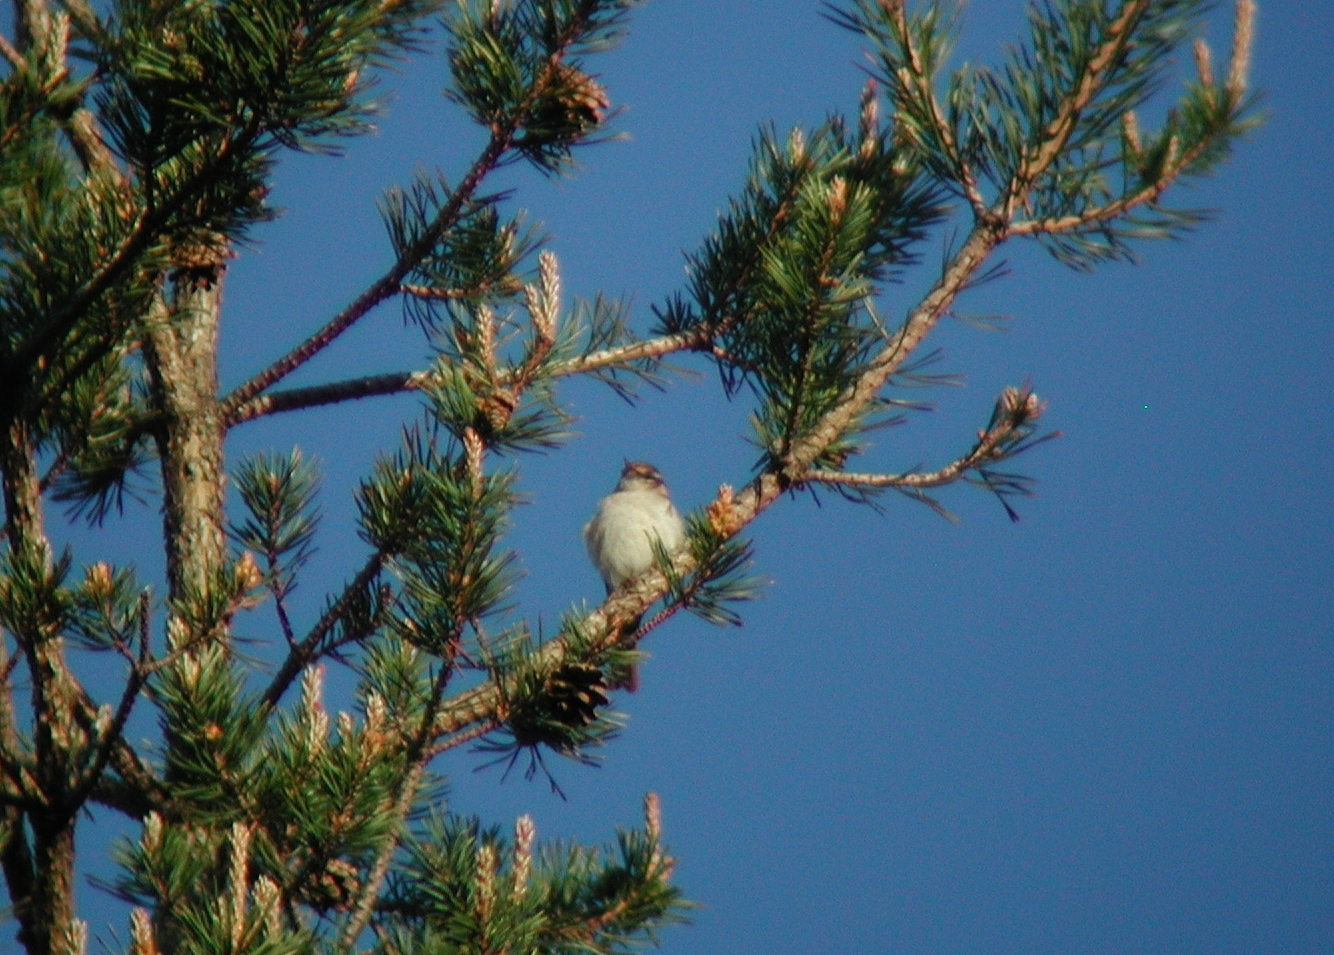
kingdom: Animalia
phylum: Chordata
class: Aves
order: Passeriformes
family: Phylloscopidae
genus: Phylloscopus
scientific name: Phylloscopus bonelli
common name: Western bonelli's warbler
